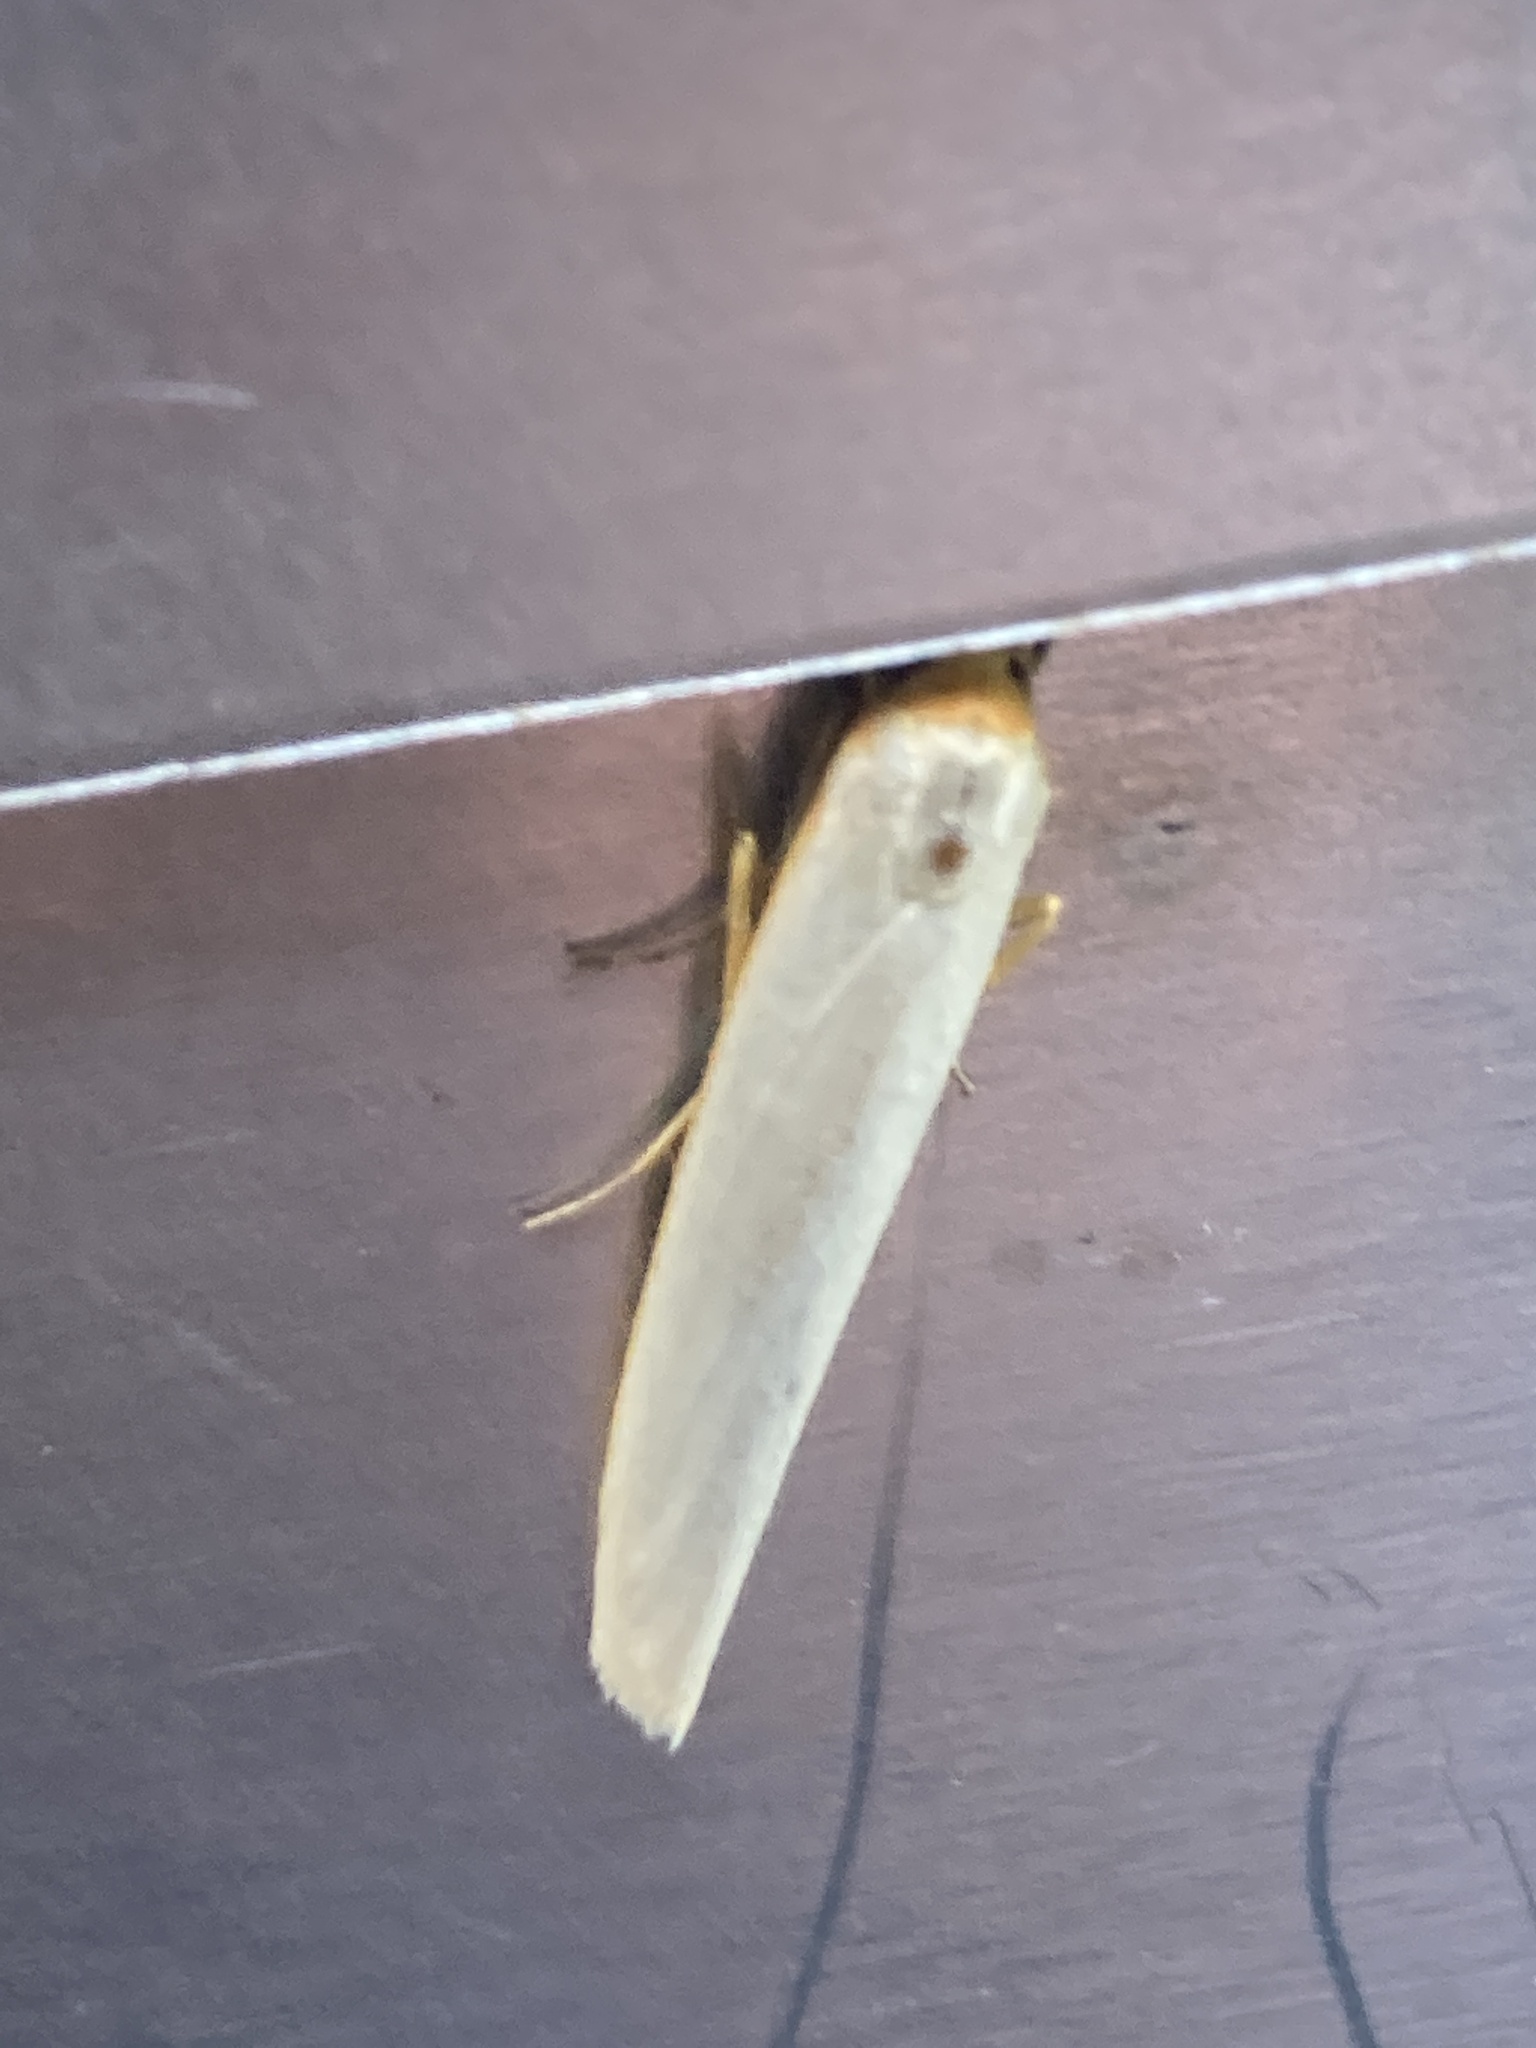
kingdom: Animalia
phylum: Arthropoda
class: Insecta
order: Lepidoptera
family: Erebidae
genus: Eilema
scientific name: Eilema caniola
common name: Hoary footman
